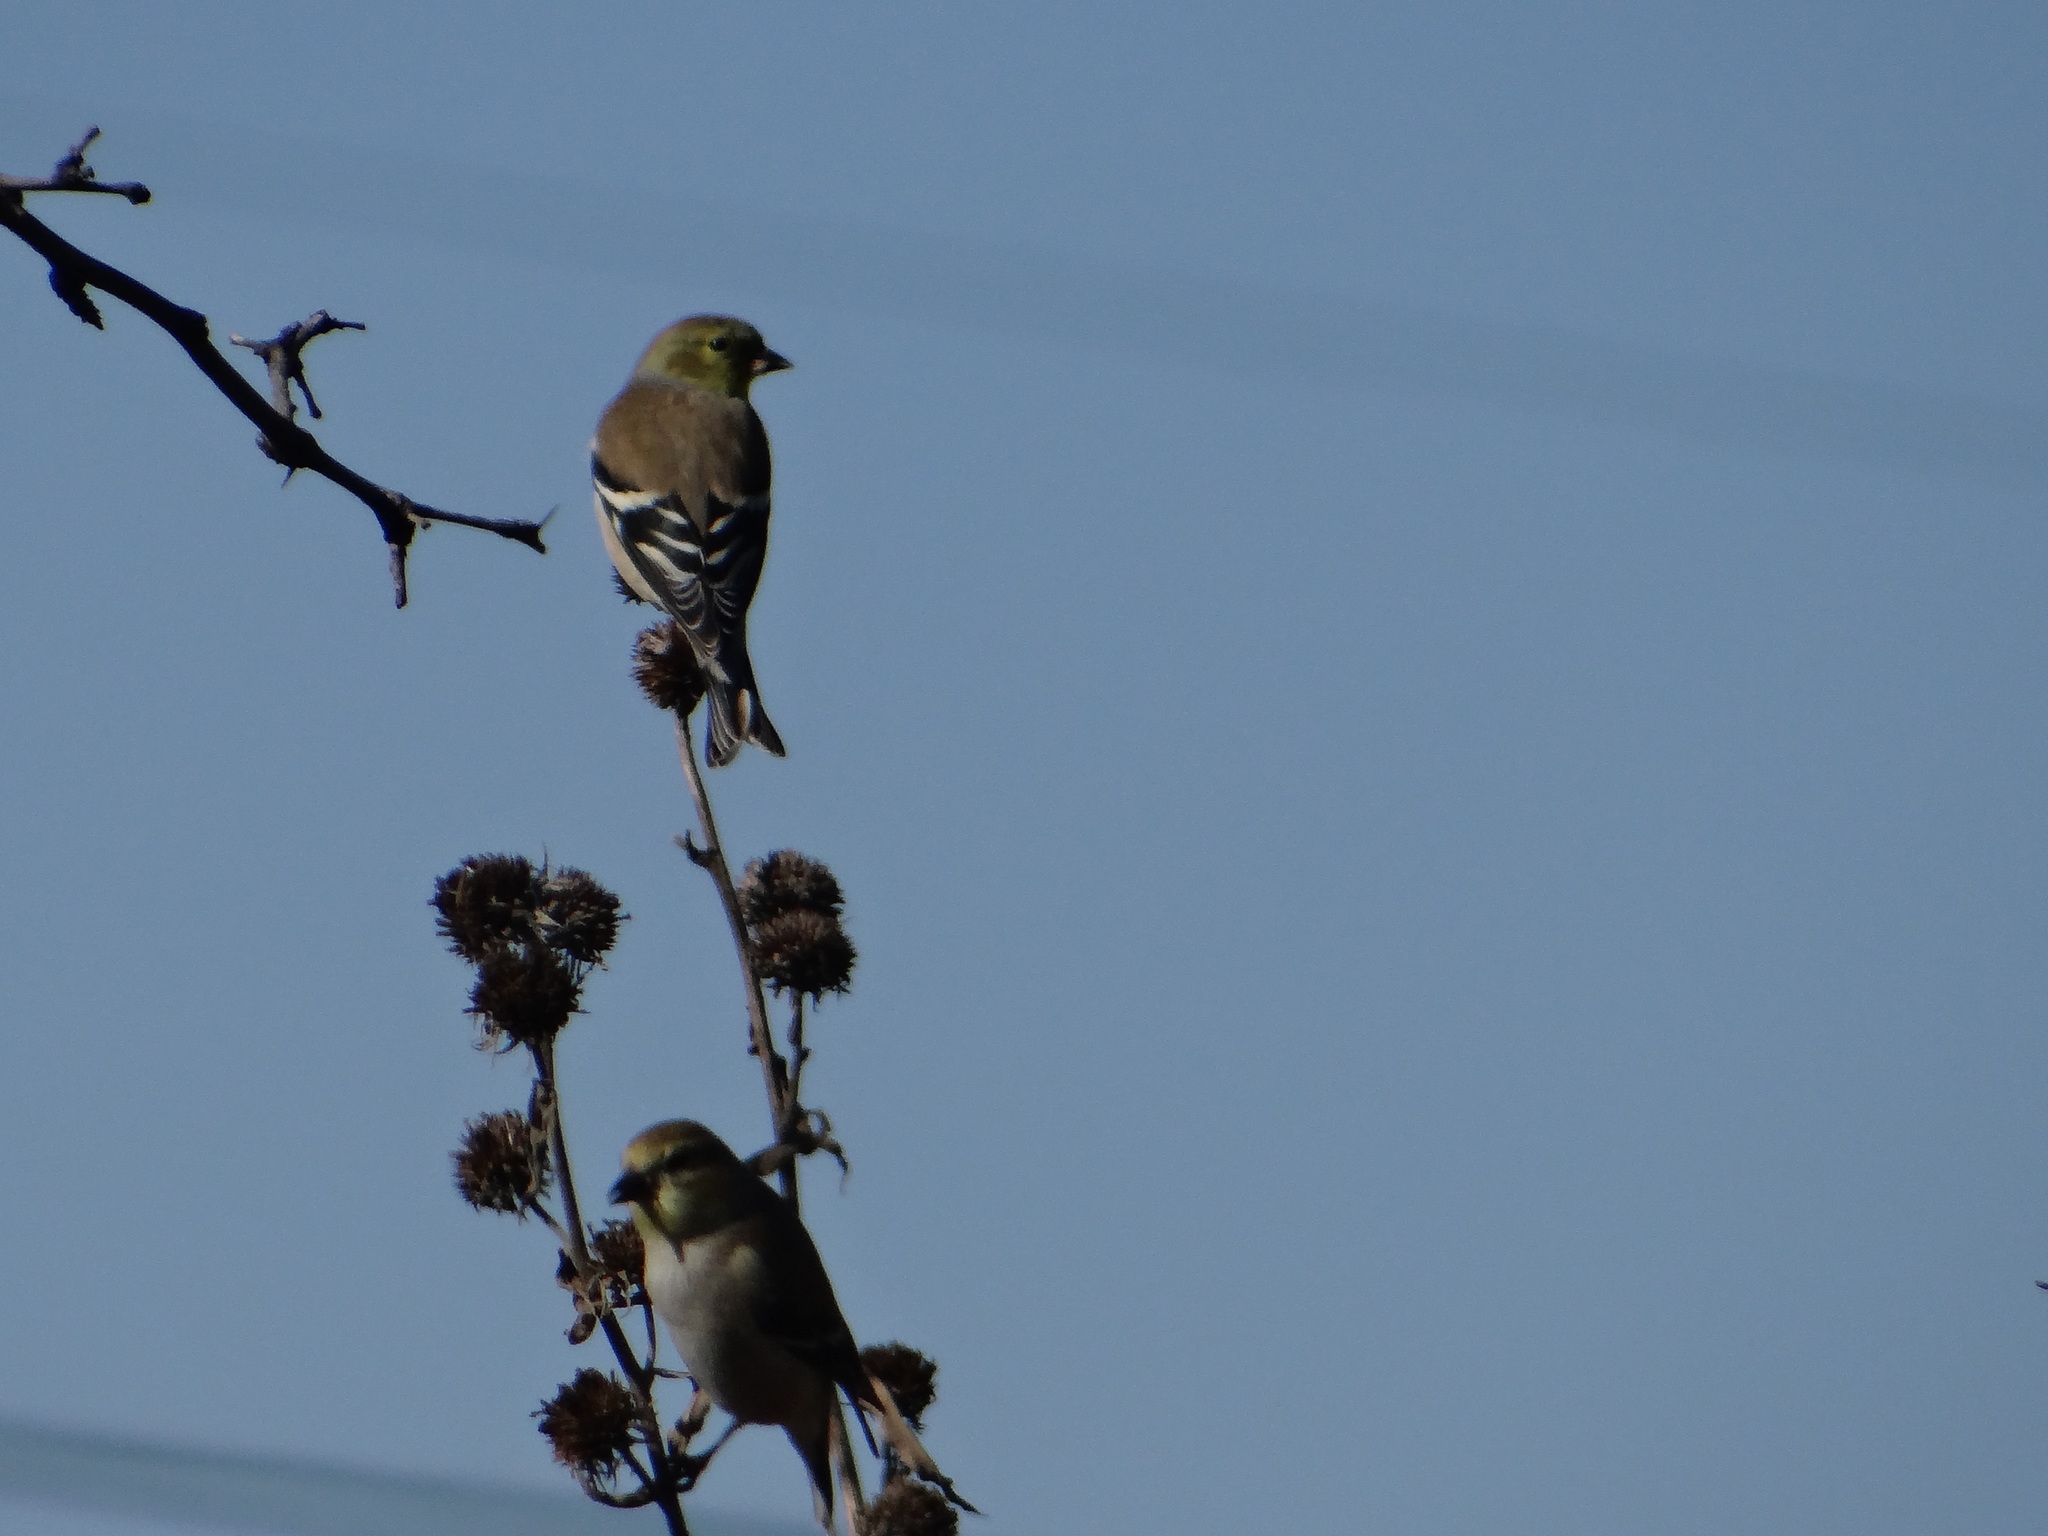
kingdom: Animalia
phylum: Chordata
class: Aves
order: Passeriformes
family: Fringillidae
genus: Spinus
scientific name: Spinus tristis
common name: American goldfinch
